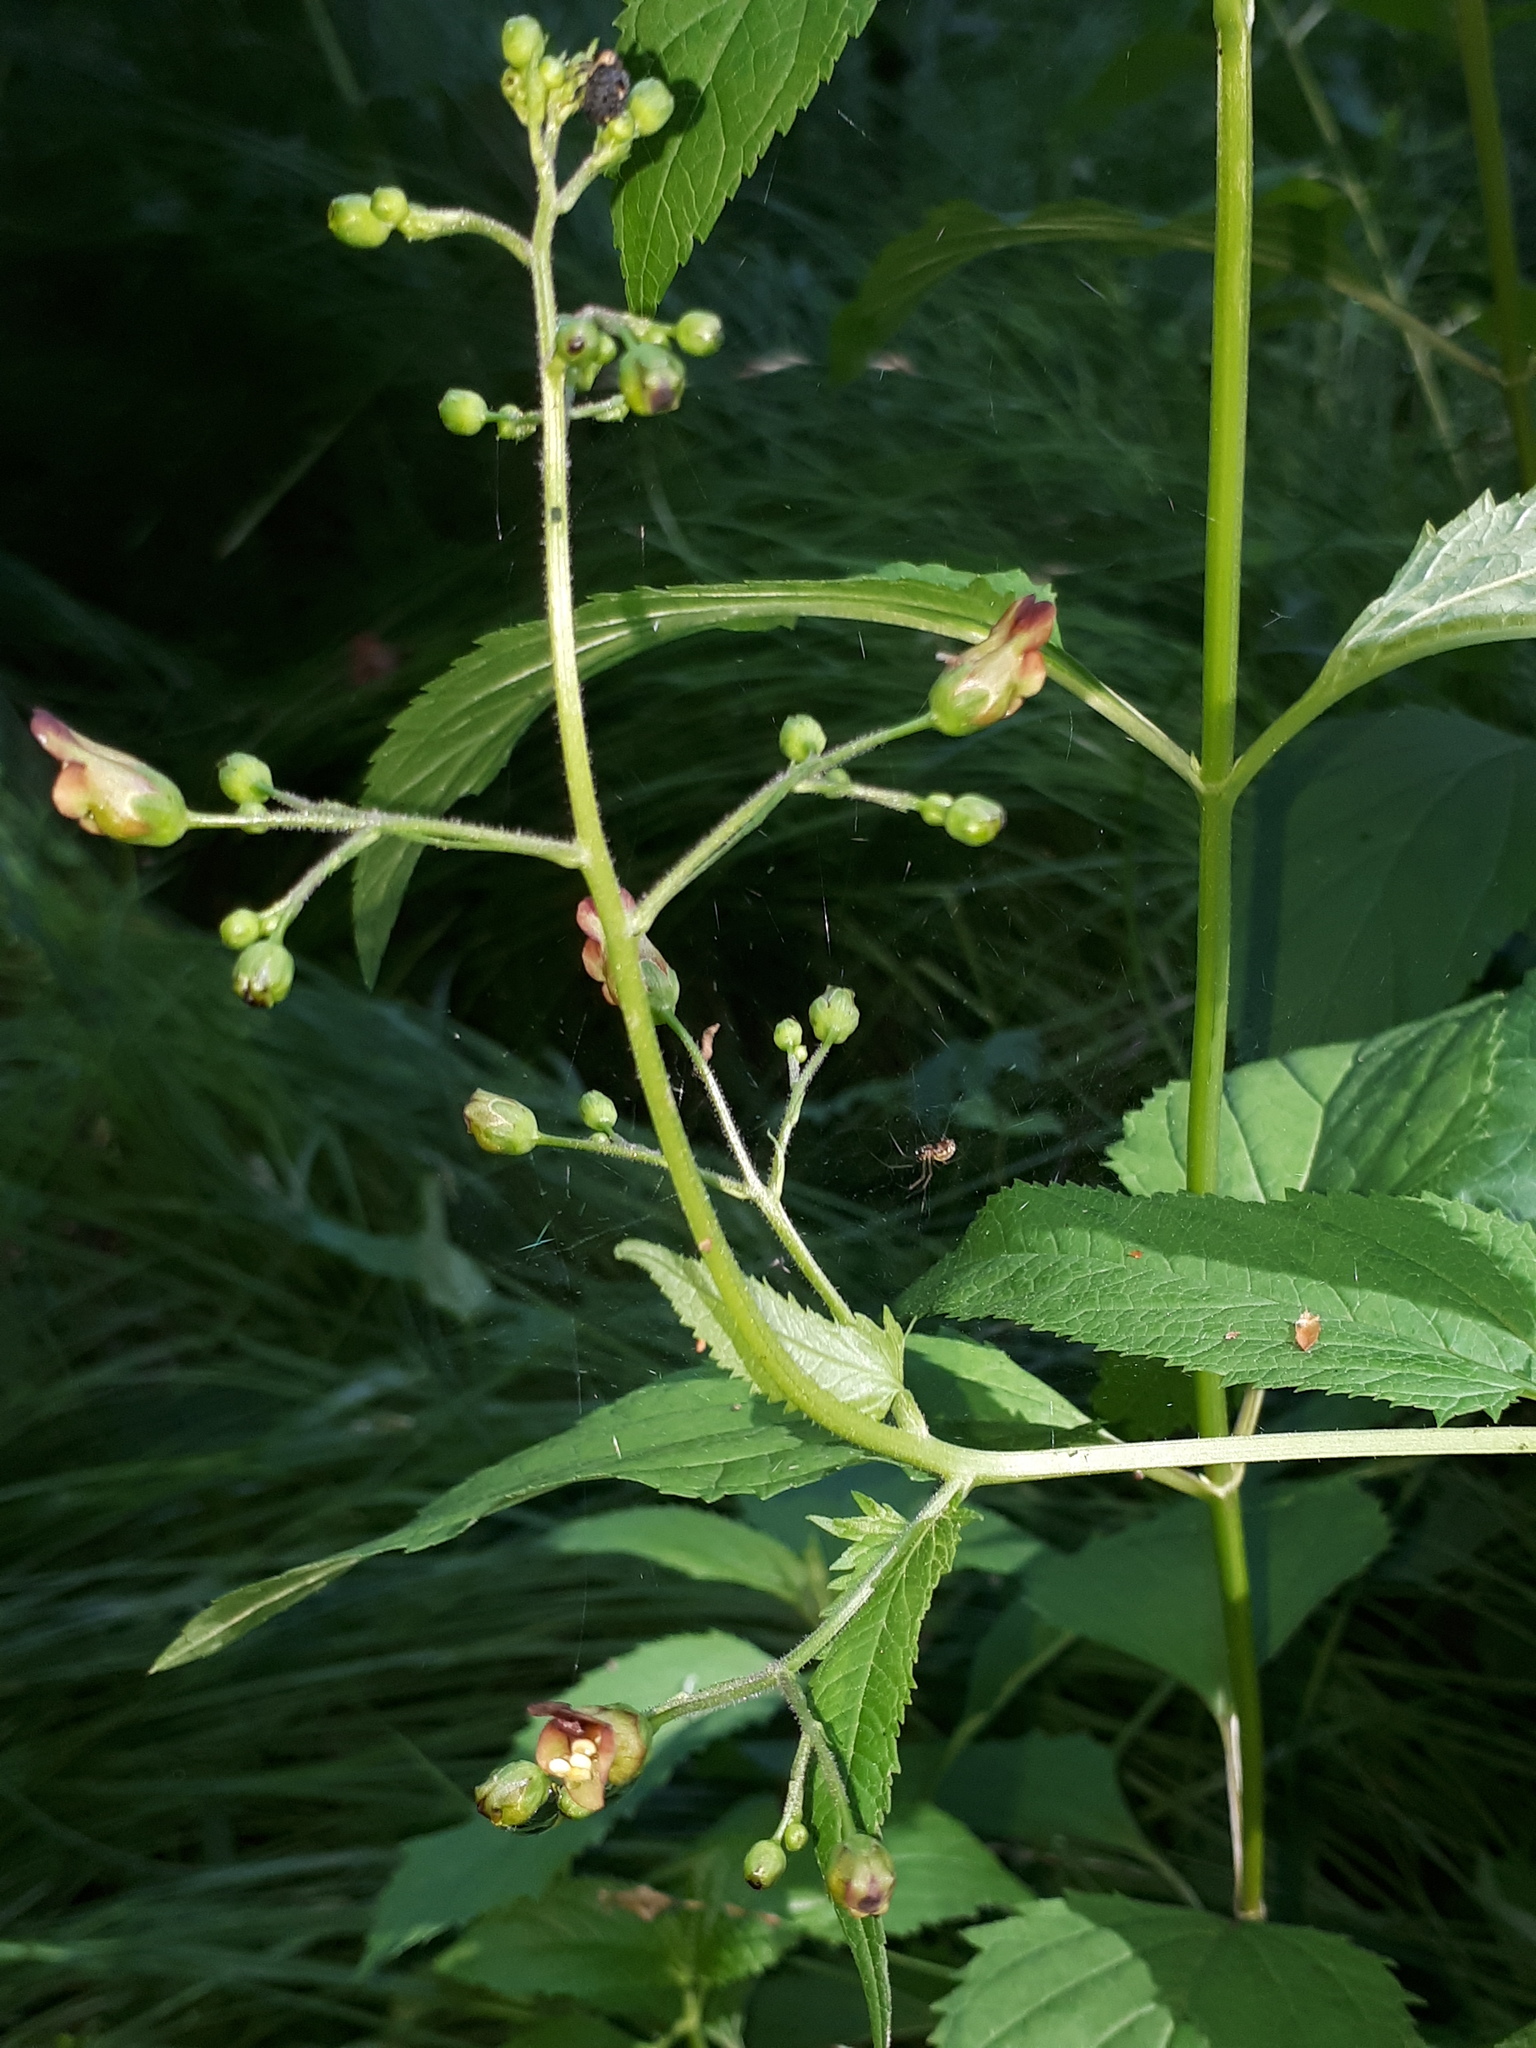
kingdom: Plantae
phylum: Tracheophyta
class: Magnoliopsida
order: Lamiales
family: Scrophulariaceae
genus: Scrophularia
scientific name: Scrophularia nodosa
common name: Common figwort
